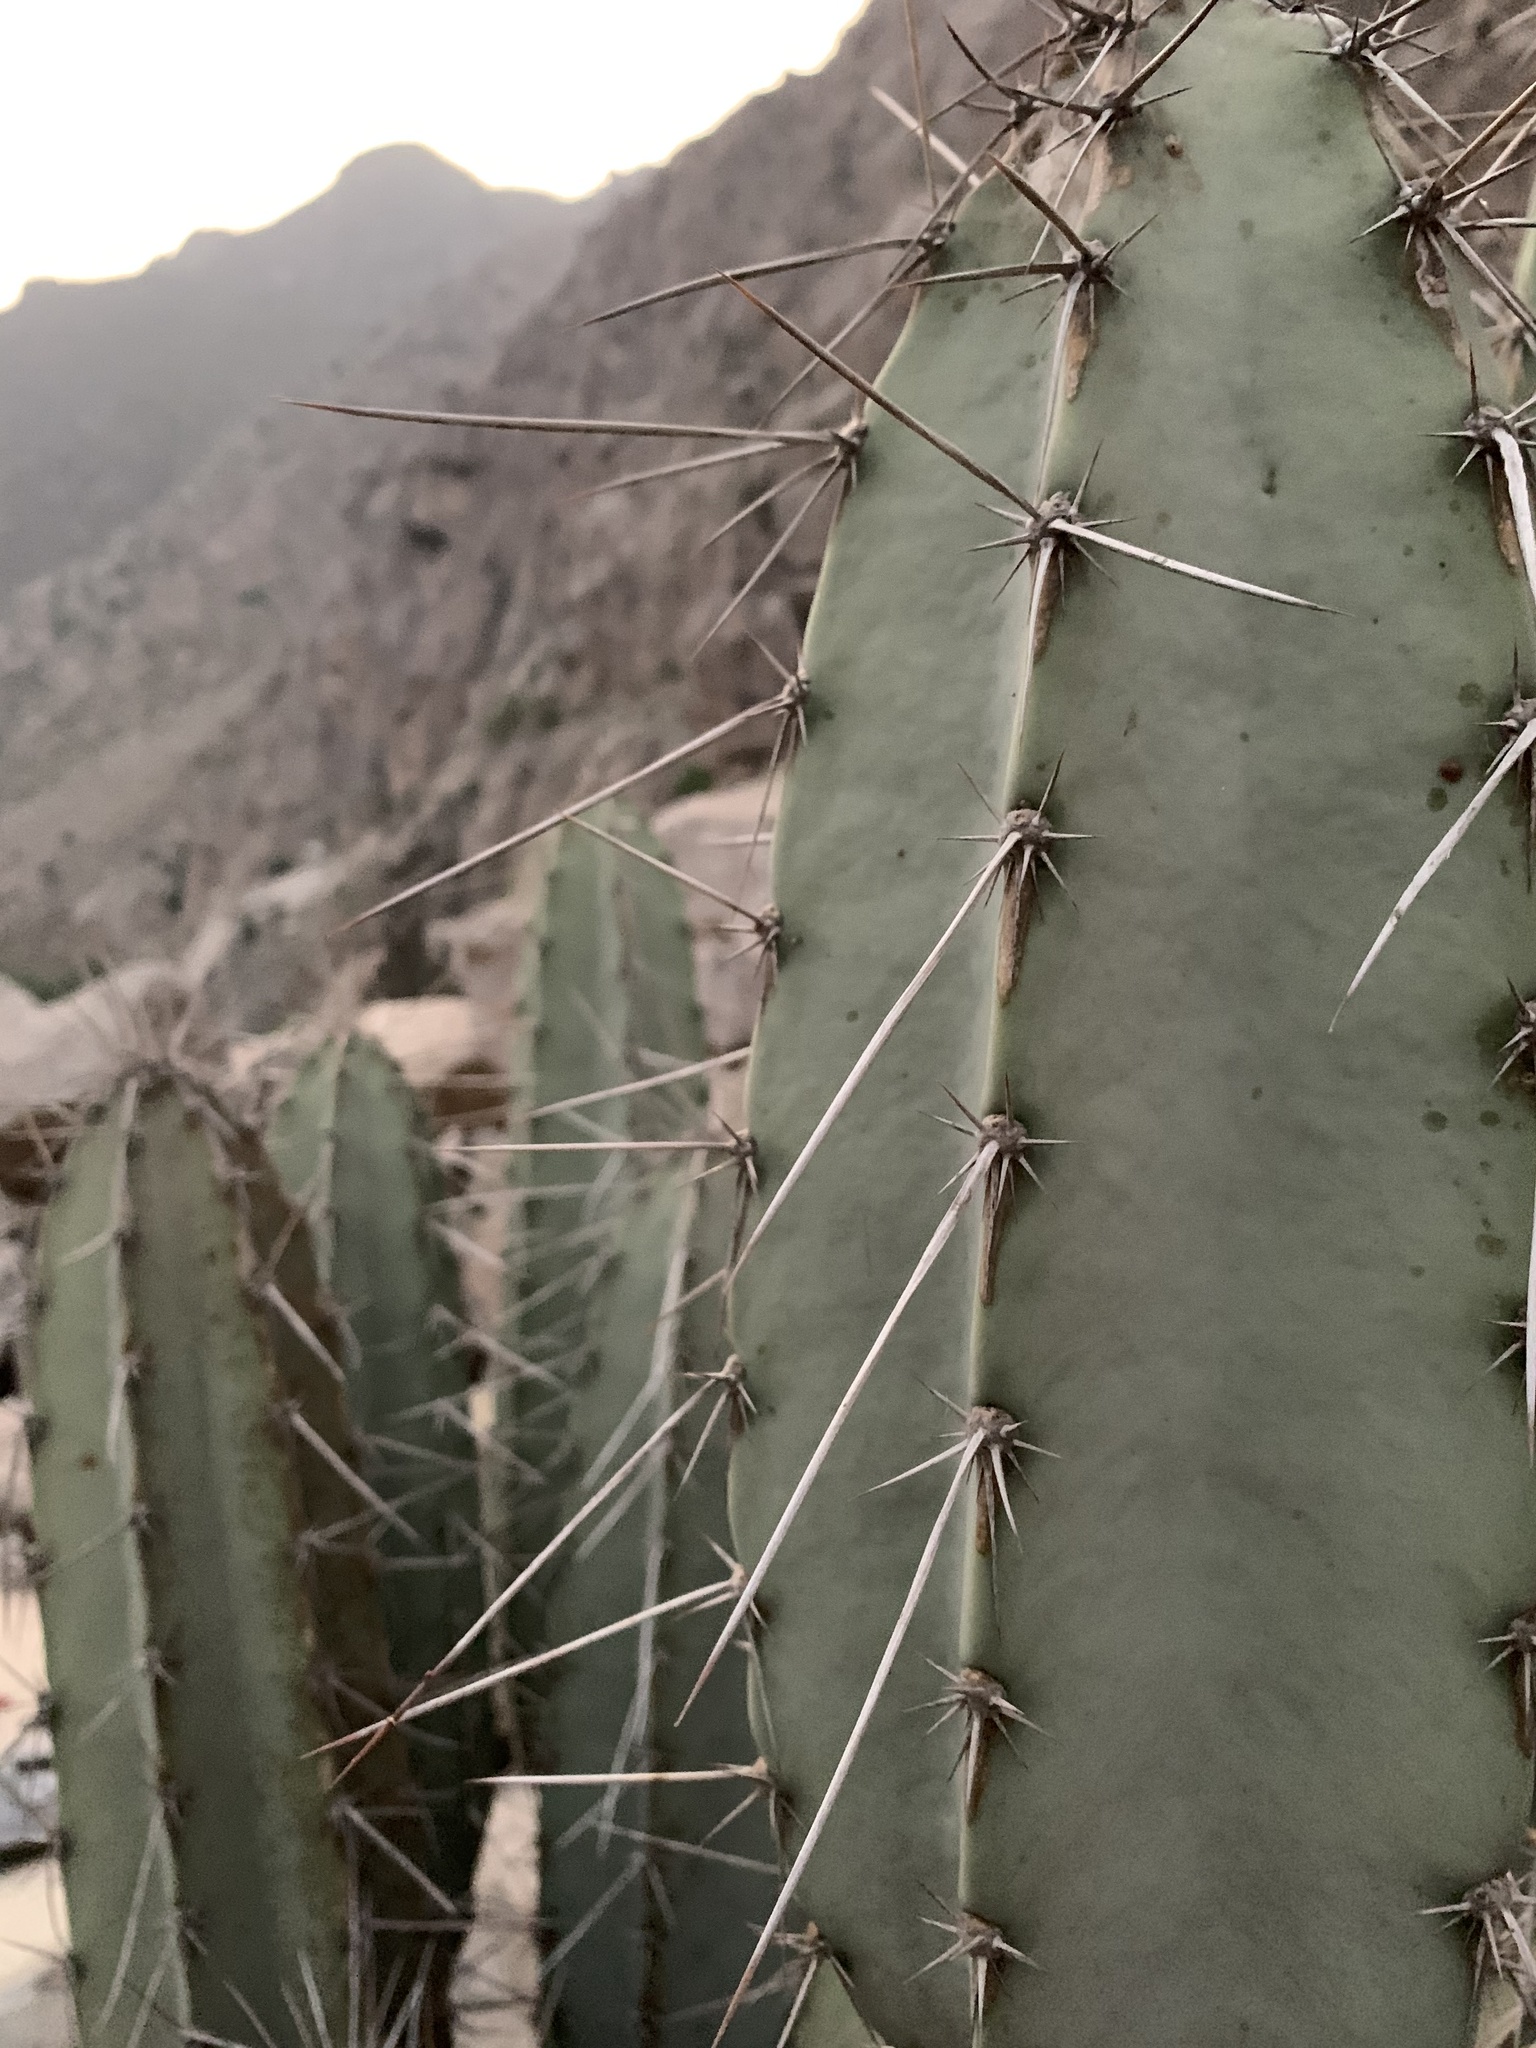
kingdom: Plantae
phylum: Tracheophyta
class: Magnoliopsida
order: Caryophyllales
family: Cactaceae
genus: Armatocereus
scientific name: Armatocereus matucanensis
